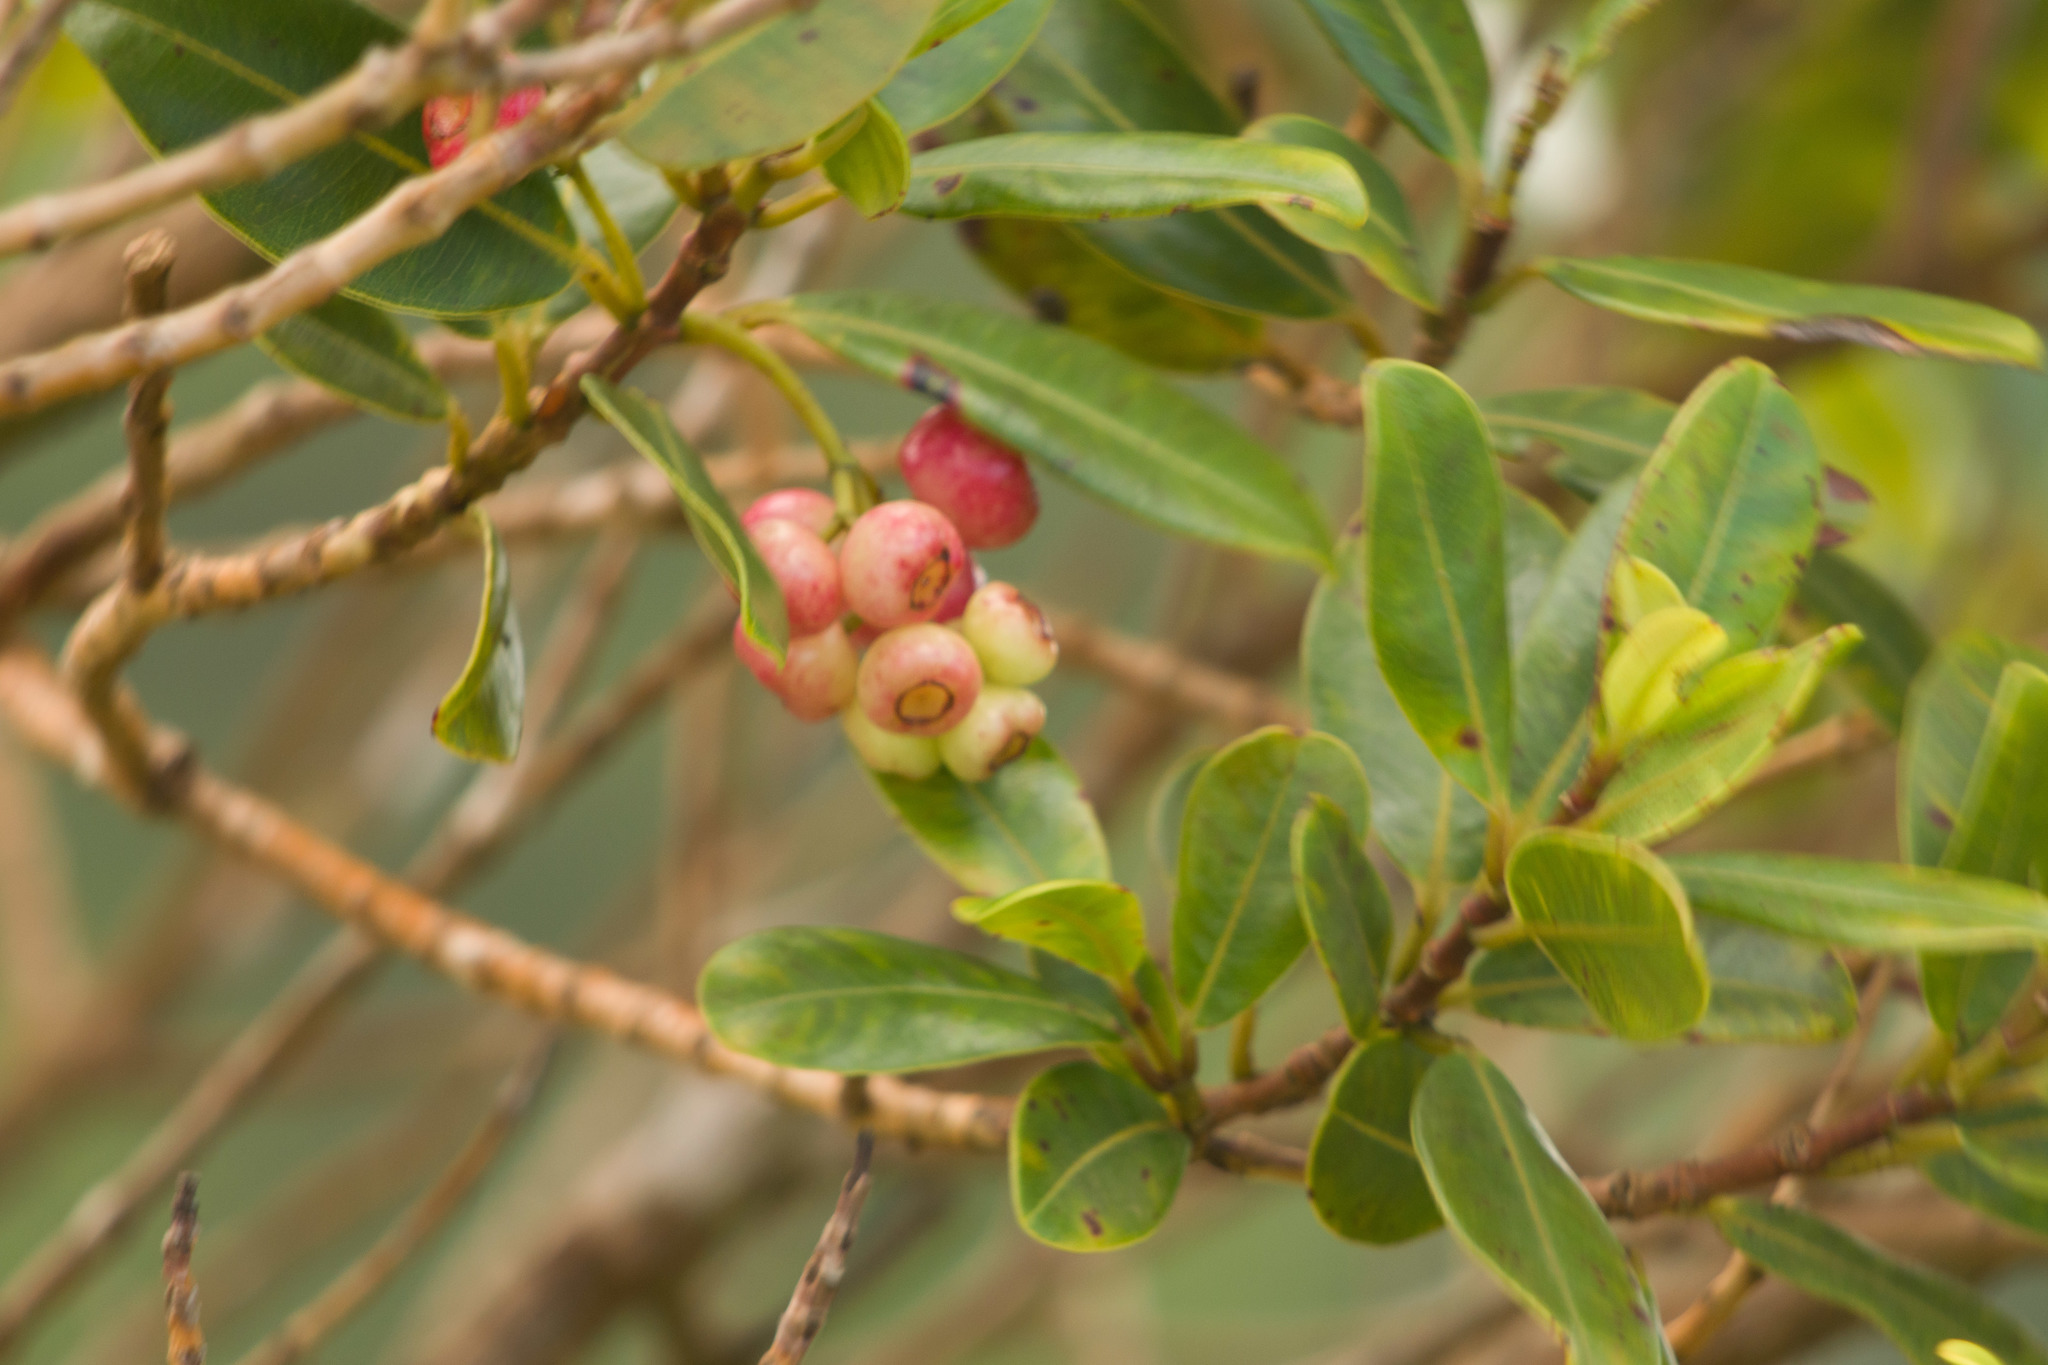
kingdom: Plantae
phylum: Tracheophyta
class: Magnoliopsida
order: Myrtales
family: Myrtaceae
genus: Syzygium
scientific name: Syzygium sandwicense
